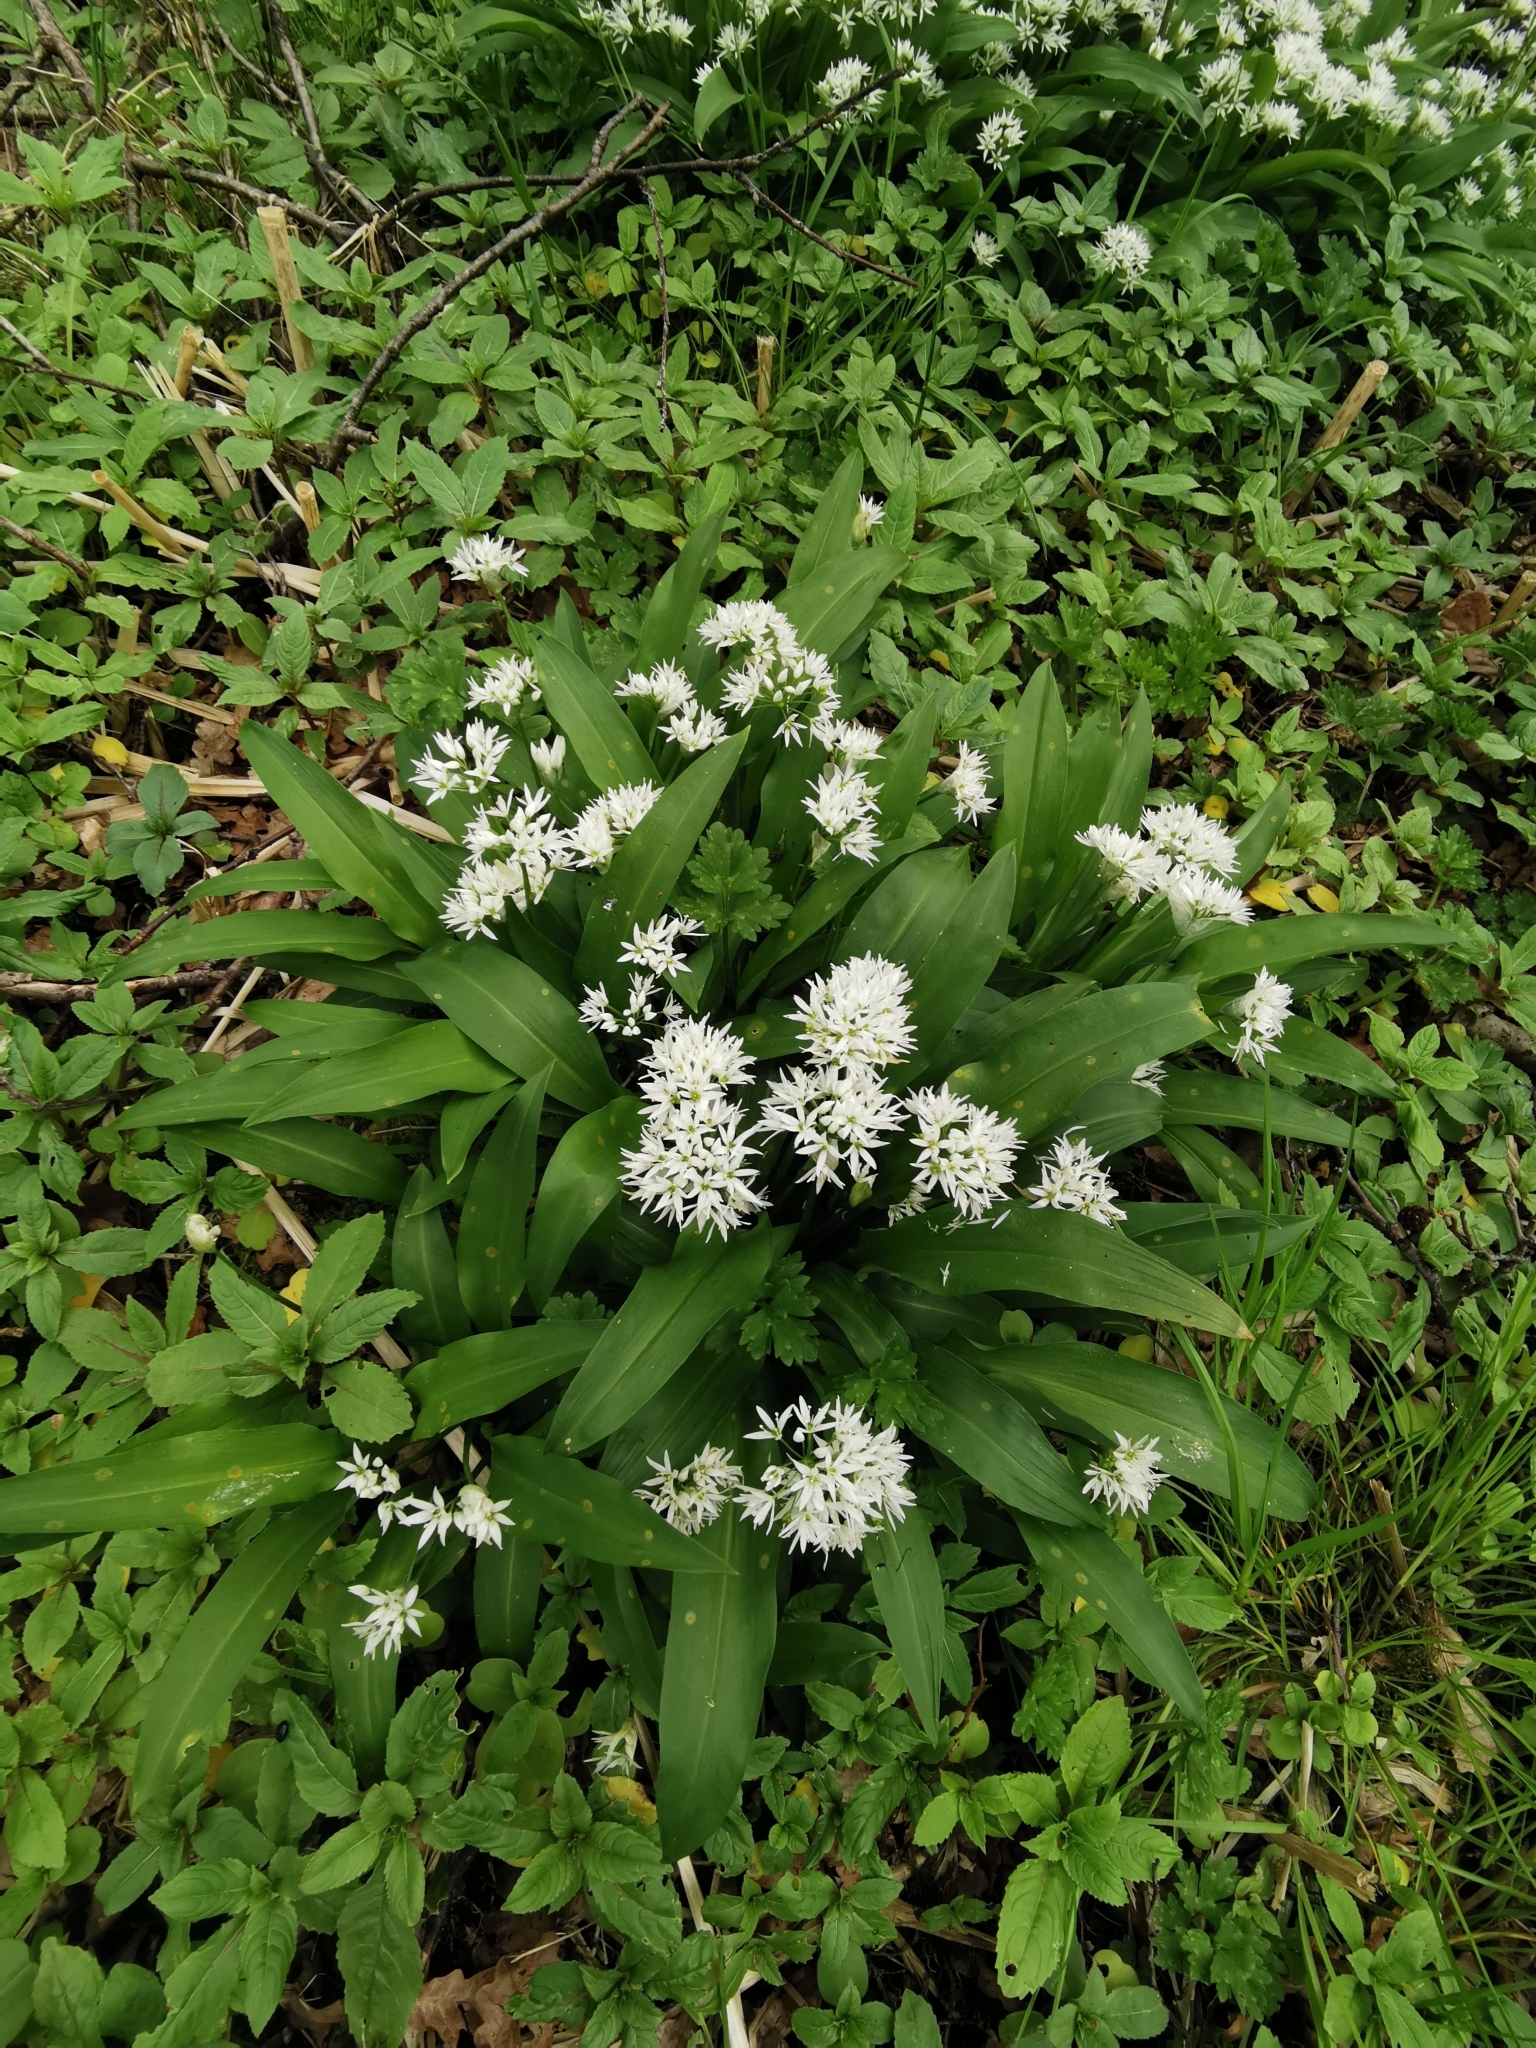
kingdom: Plantae
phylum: Tracheophyta
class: Liliopsida
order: Asparagales
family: Amaryllidaceae
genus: Allium
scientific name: Allium ursinum
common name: Ramsons
